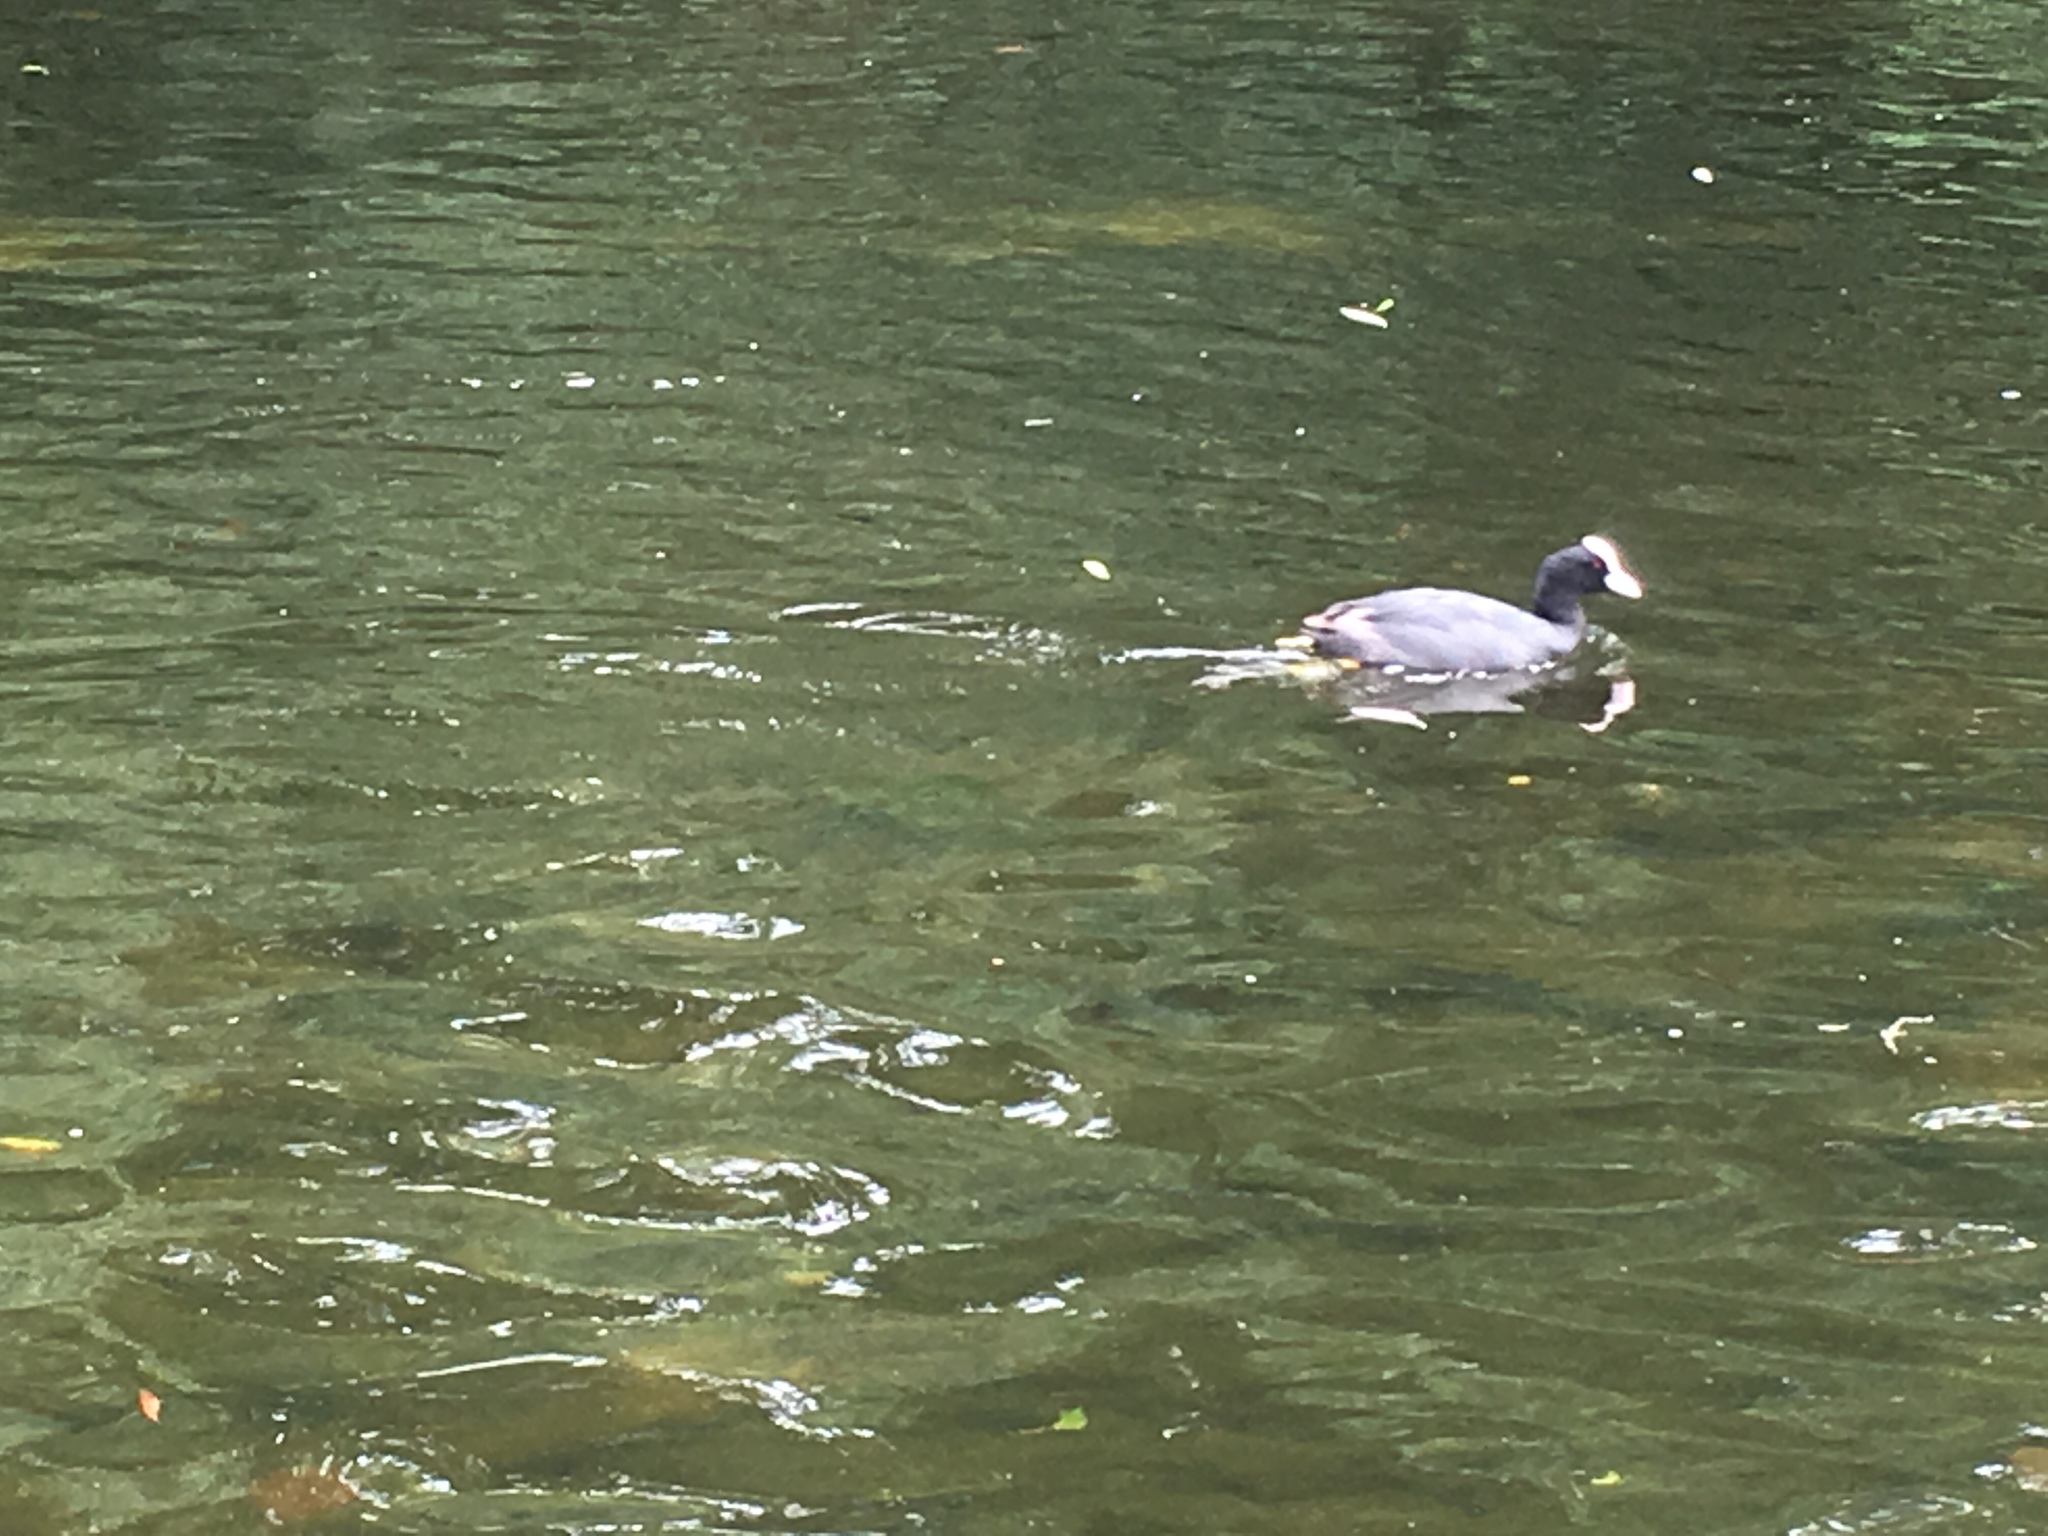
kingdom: Animalia
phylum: Chordata
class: Aves
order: Gruiformes
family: Rallidae
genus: Fulica
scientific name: Fulica atra
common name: Eurasian coot
